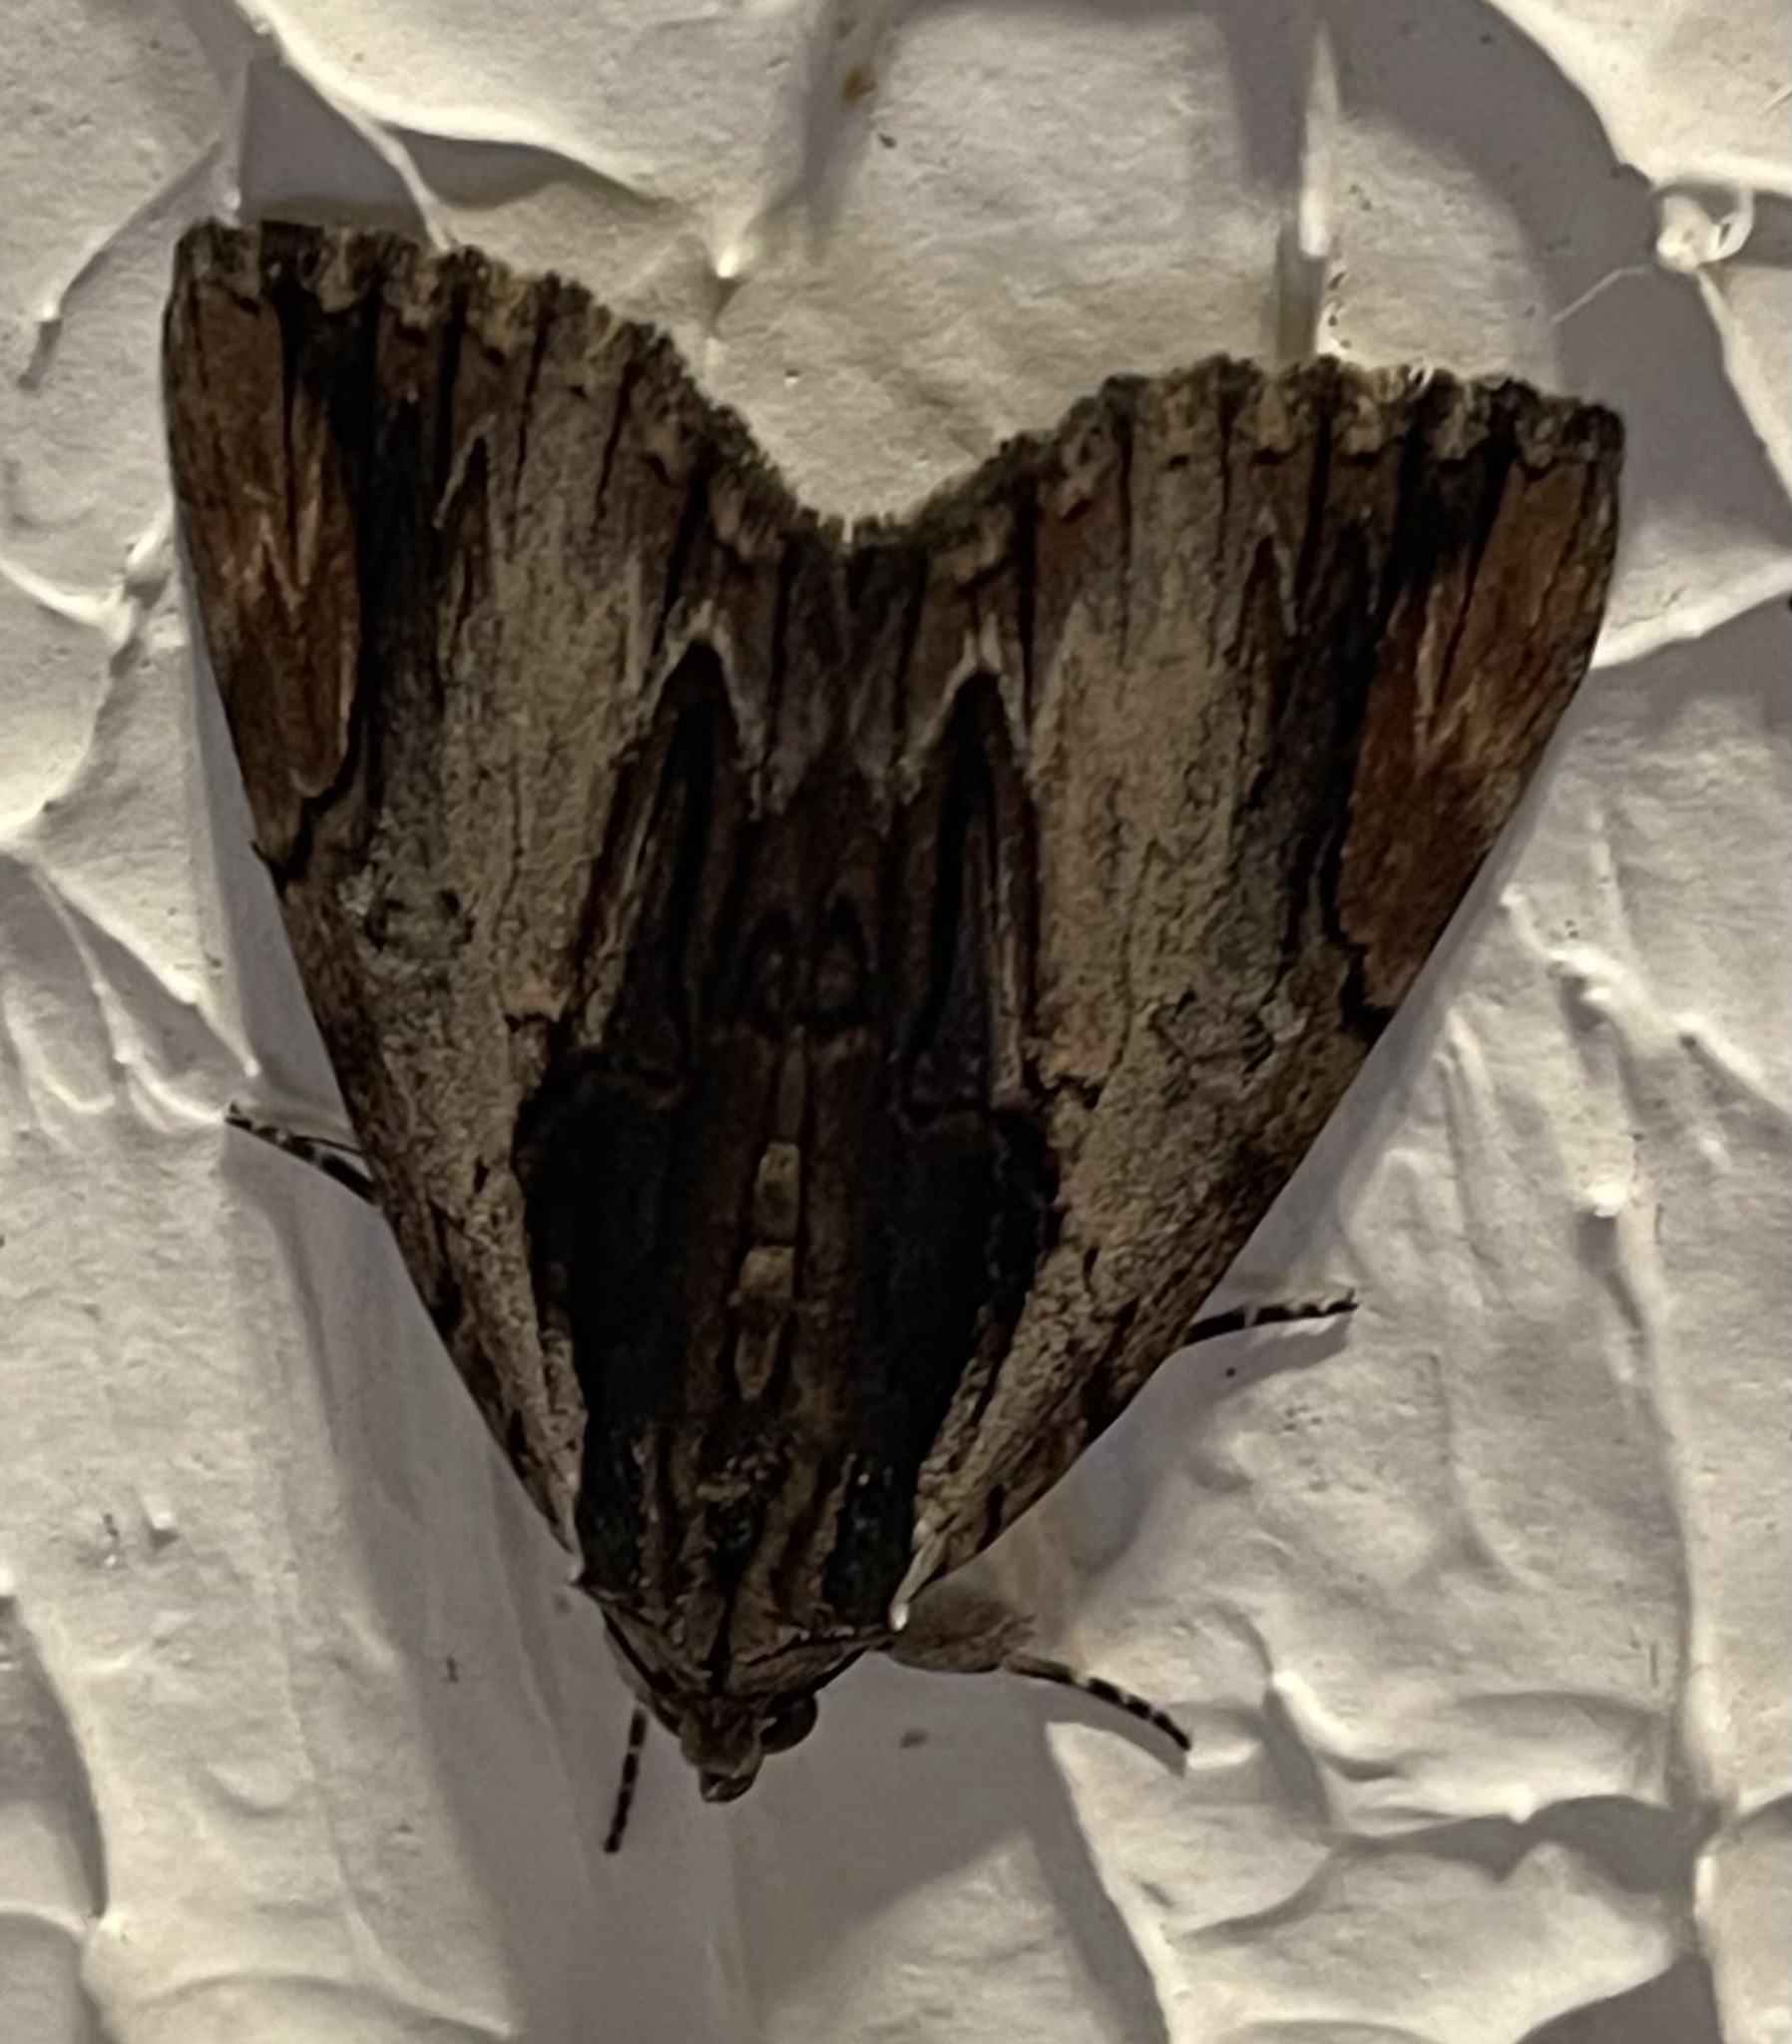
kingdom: Animalia
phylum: Arthropoda
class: Insecta
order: Lepidoptera
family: Erebidae
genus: Catocala
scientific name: Catocala ultronia
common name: Ultronia underwing
